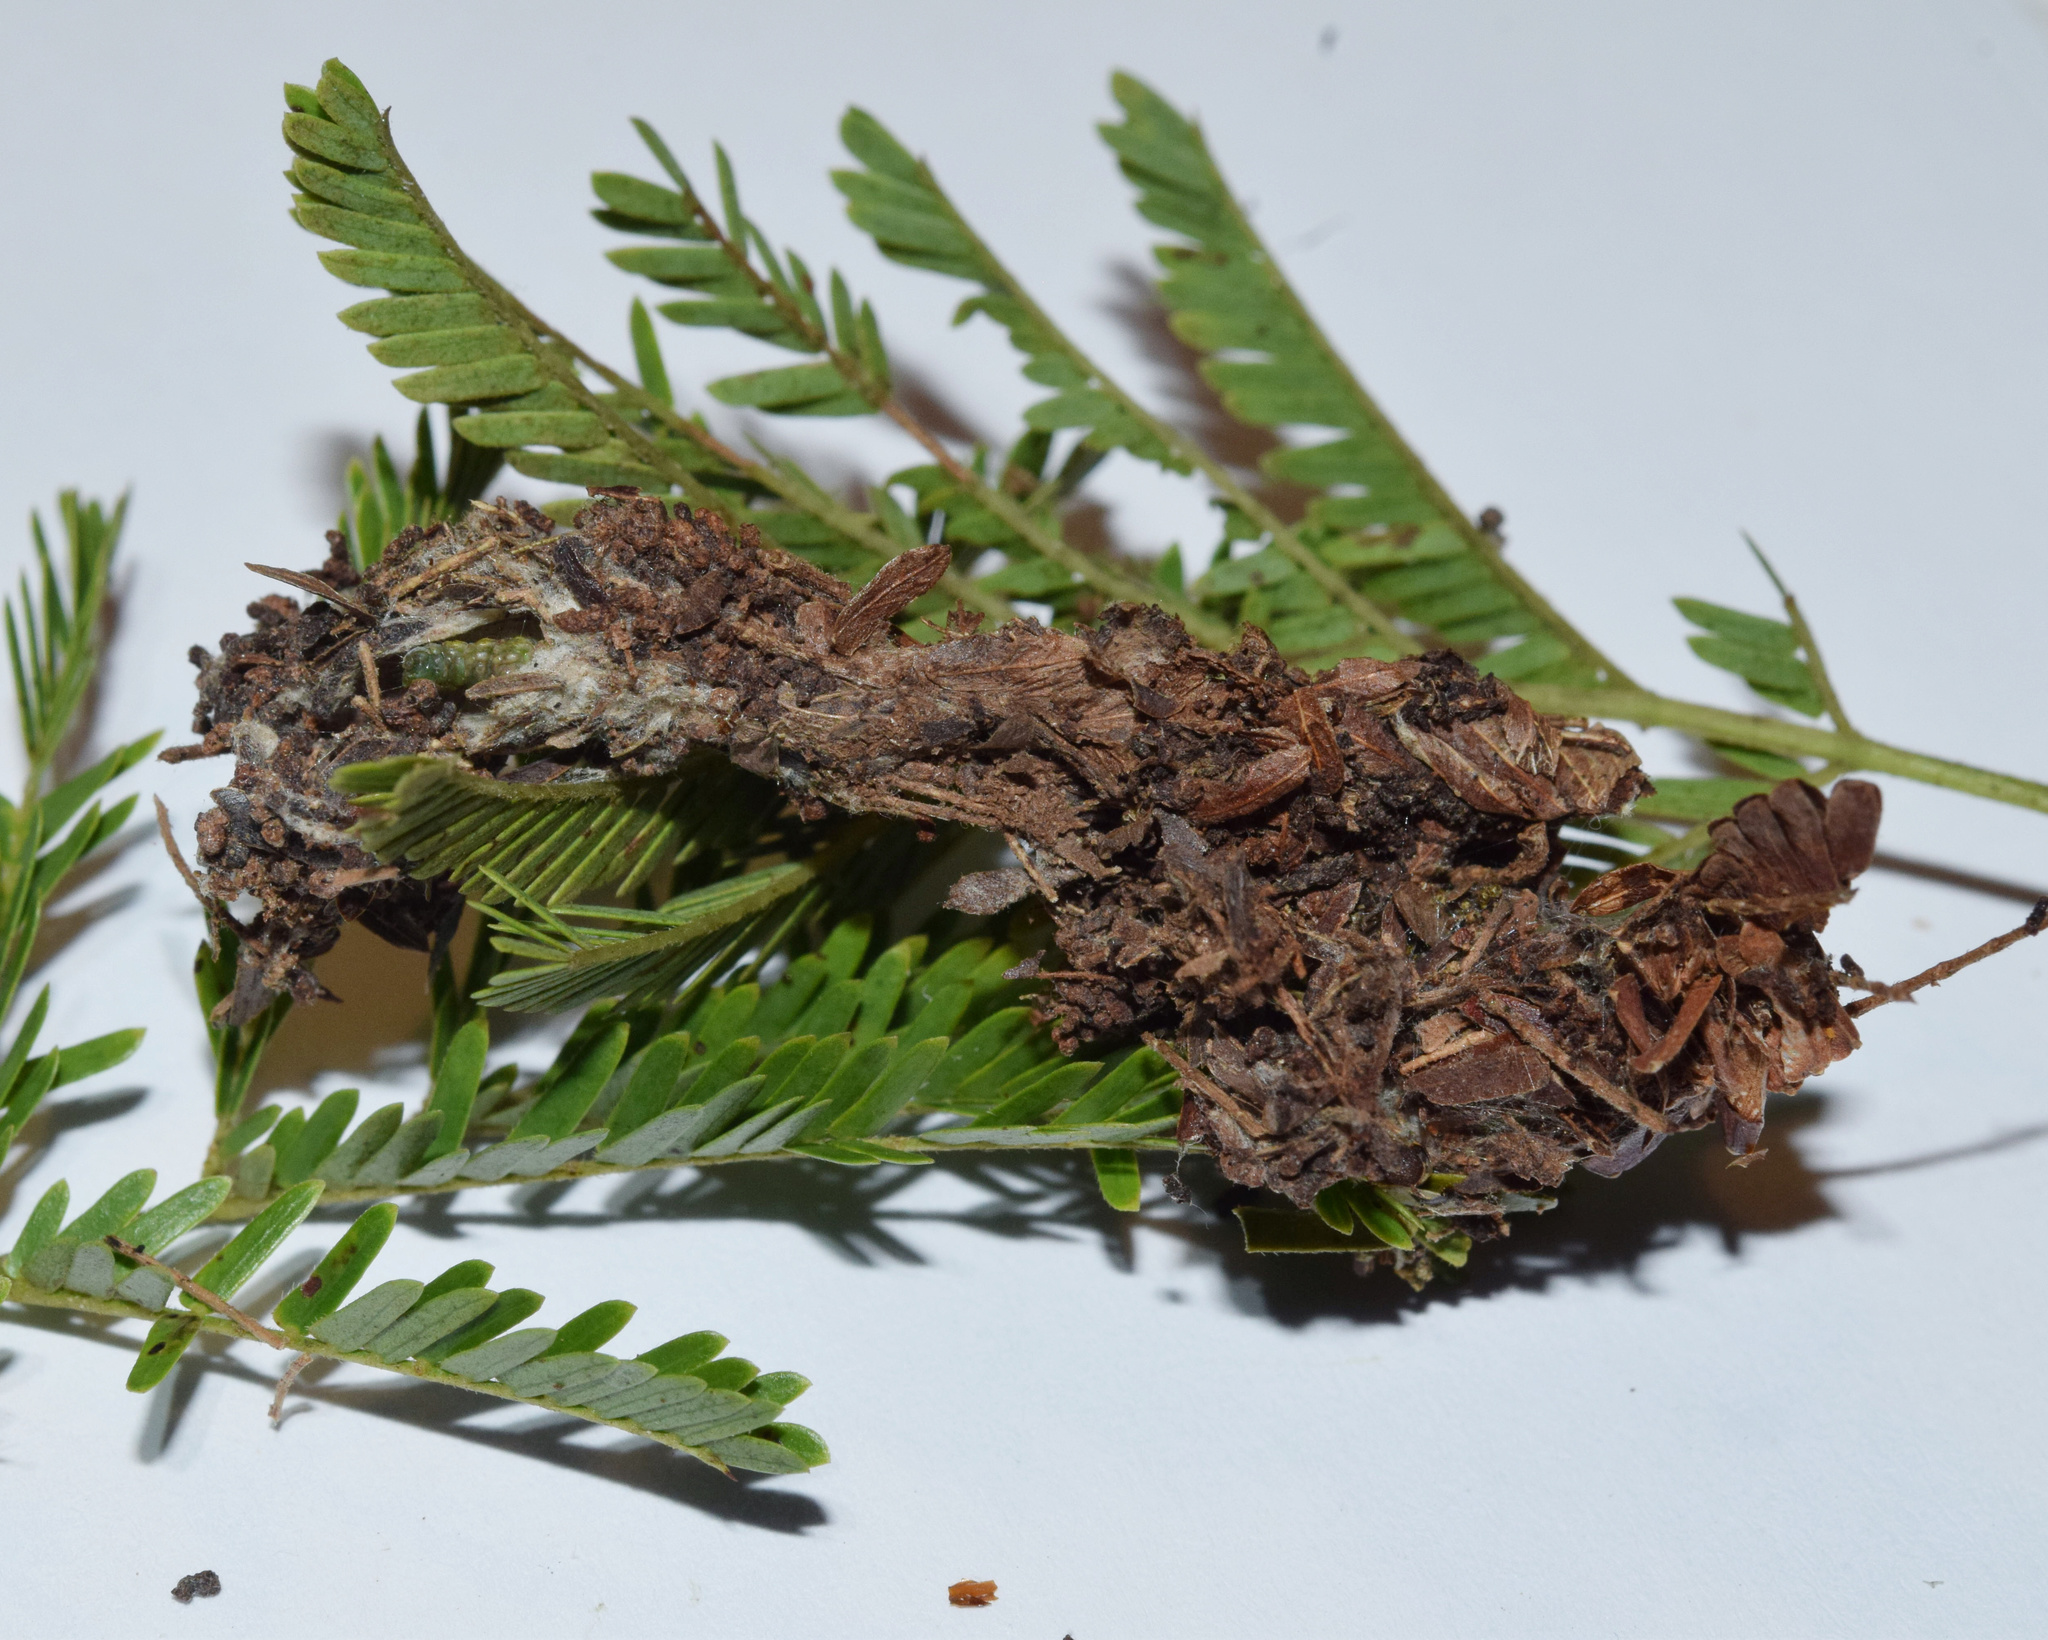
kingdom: Plantae
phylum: Tracheophyta
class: Magnoliopsida
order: Fabales
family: Fabaceae
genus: Dichrostachys
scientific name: Dichrostachys cinerea
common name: Sicklebush
